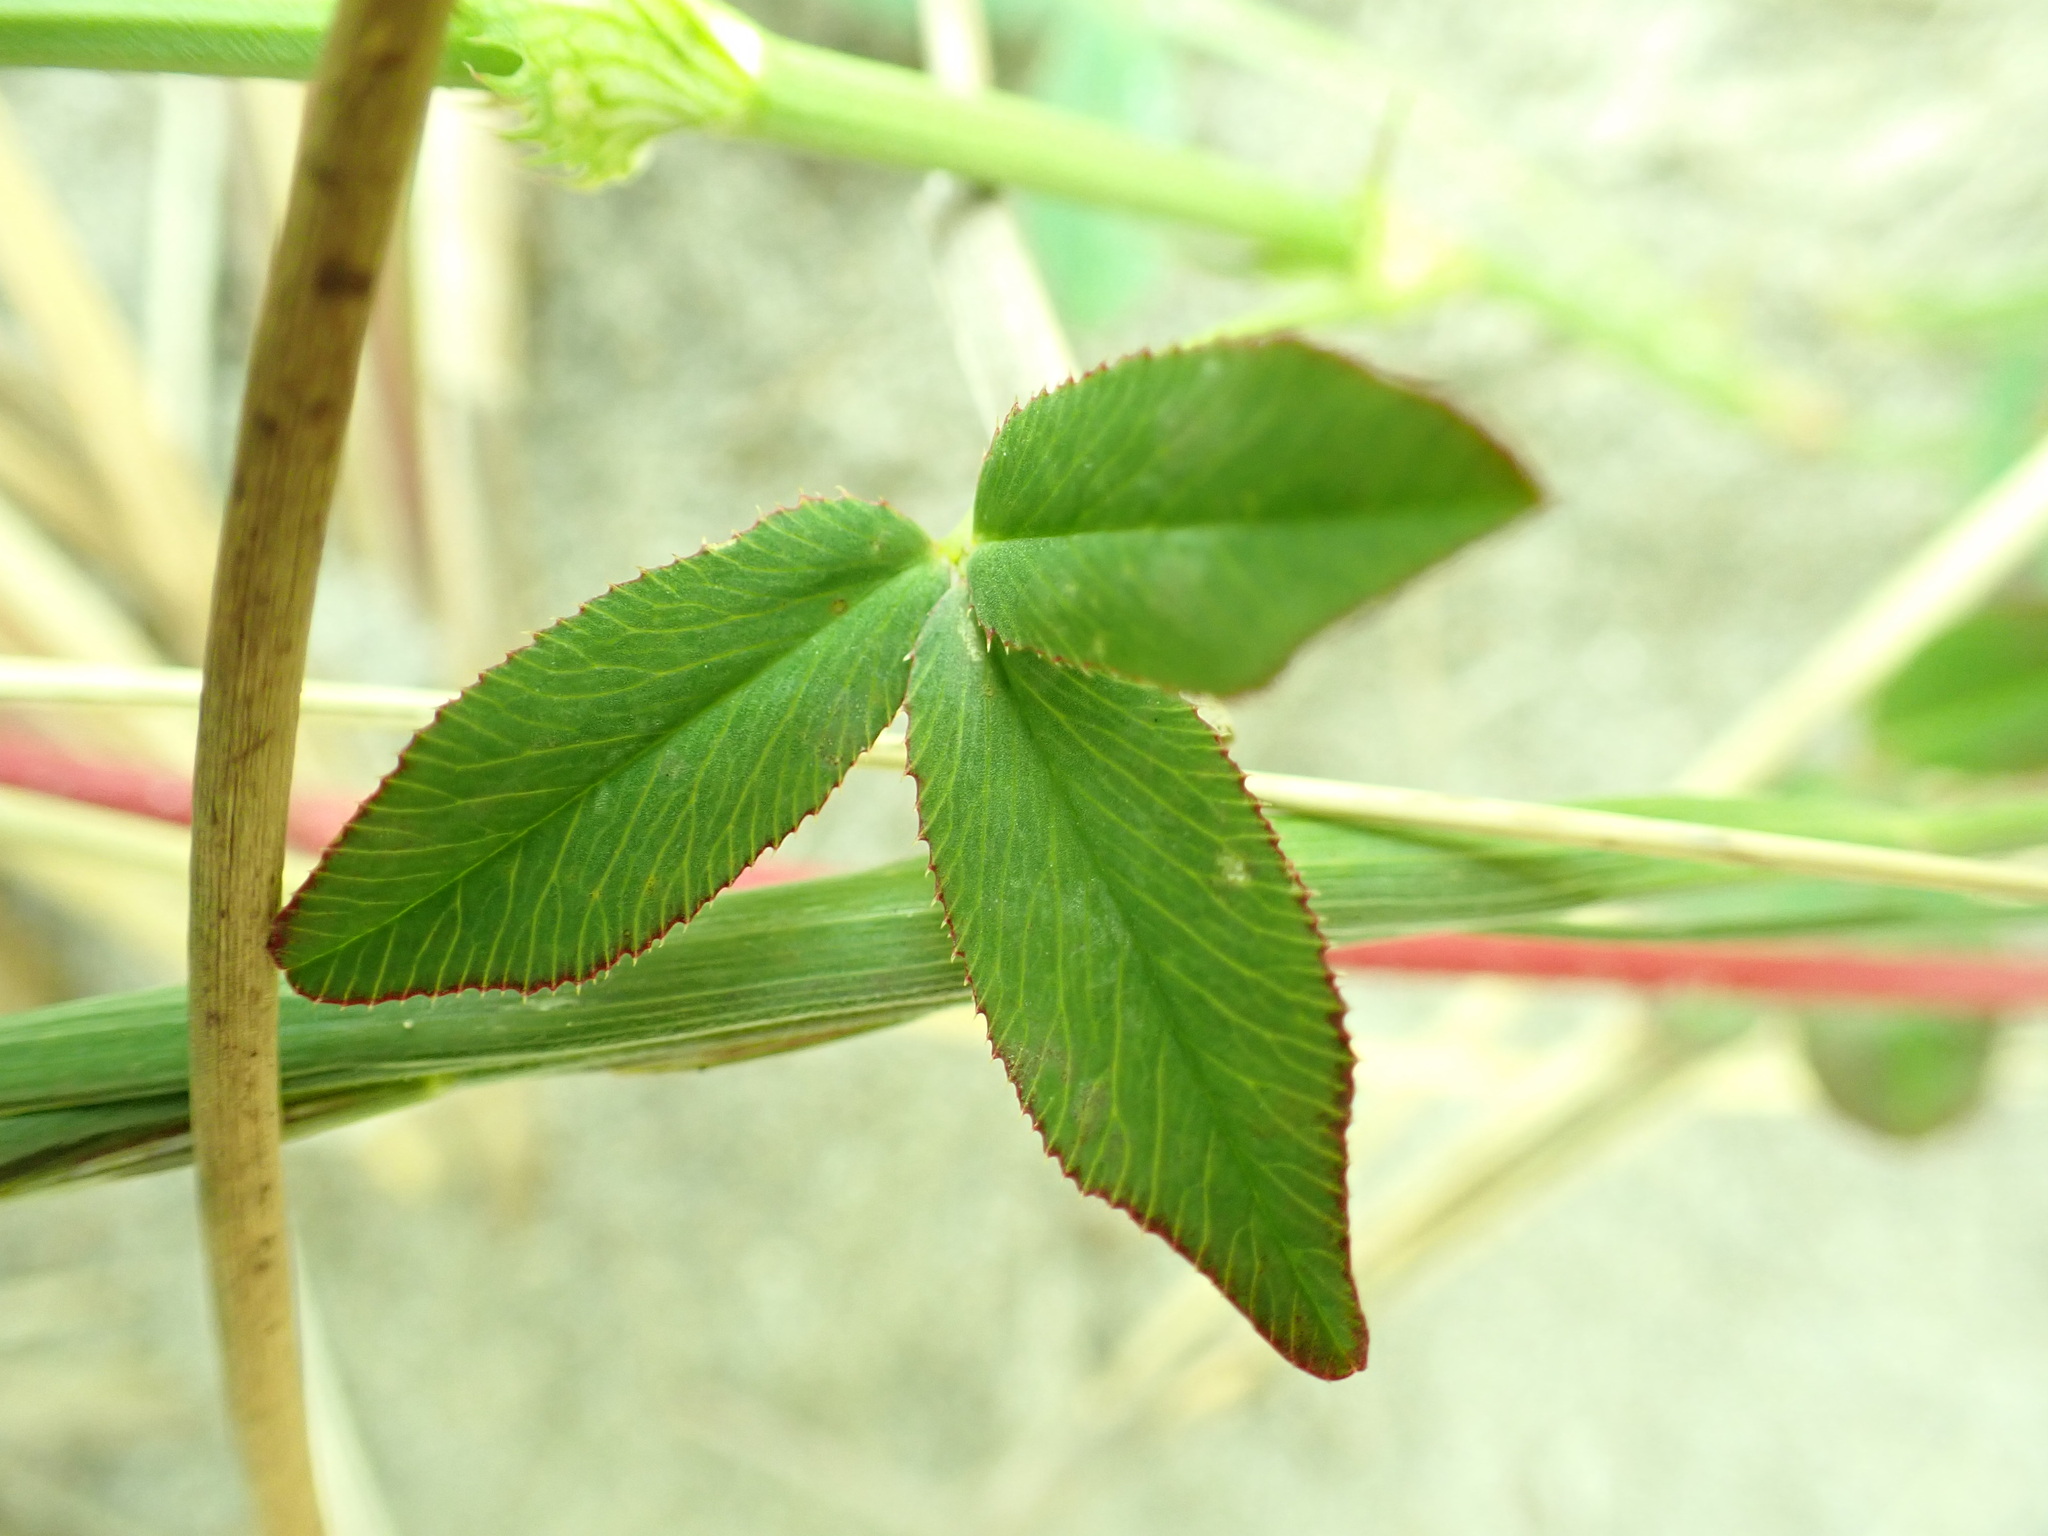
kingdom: Plantae
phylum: Tracheophyta
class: Magnoliopsida
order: Fabales
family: Fabaceae
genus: Trifolium
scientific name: Trifolium wormskioldii
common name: Springbank clover
